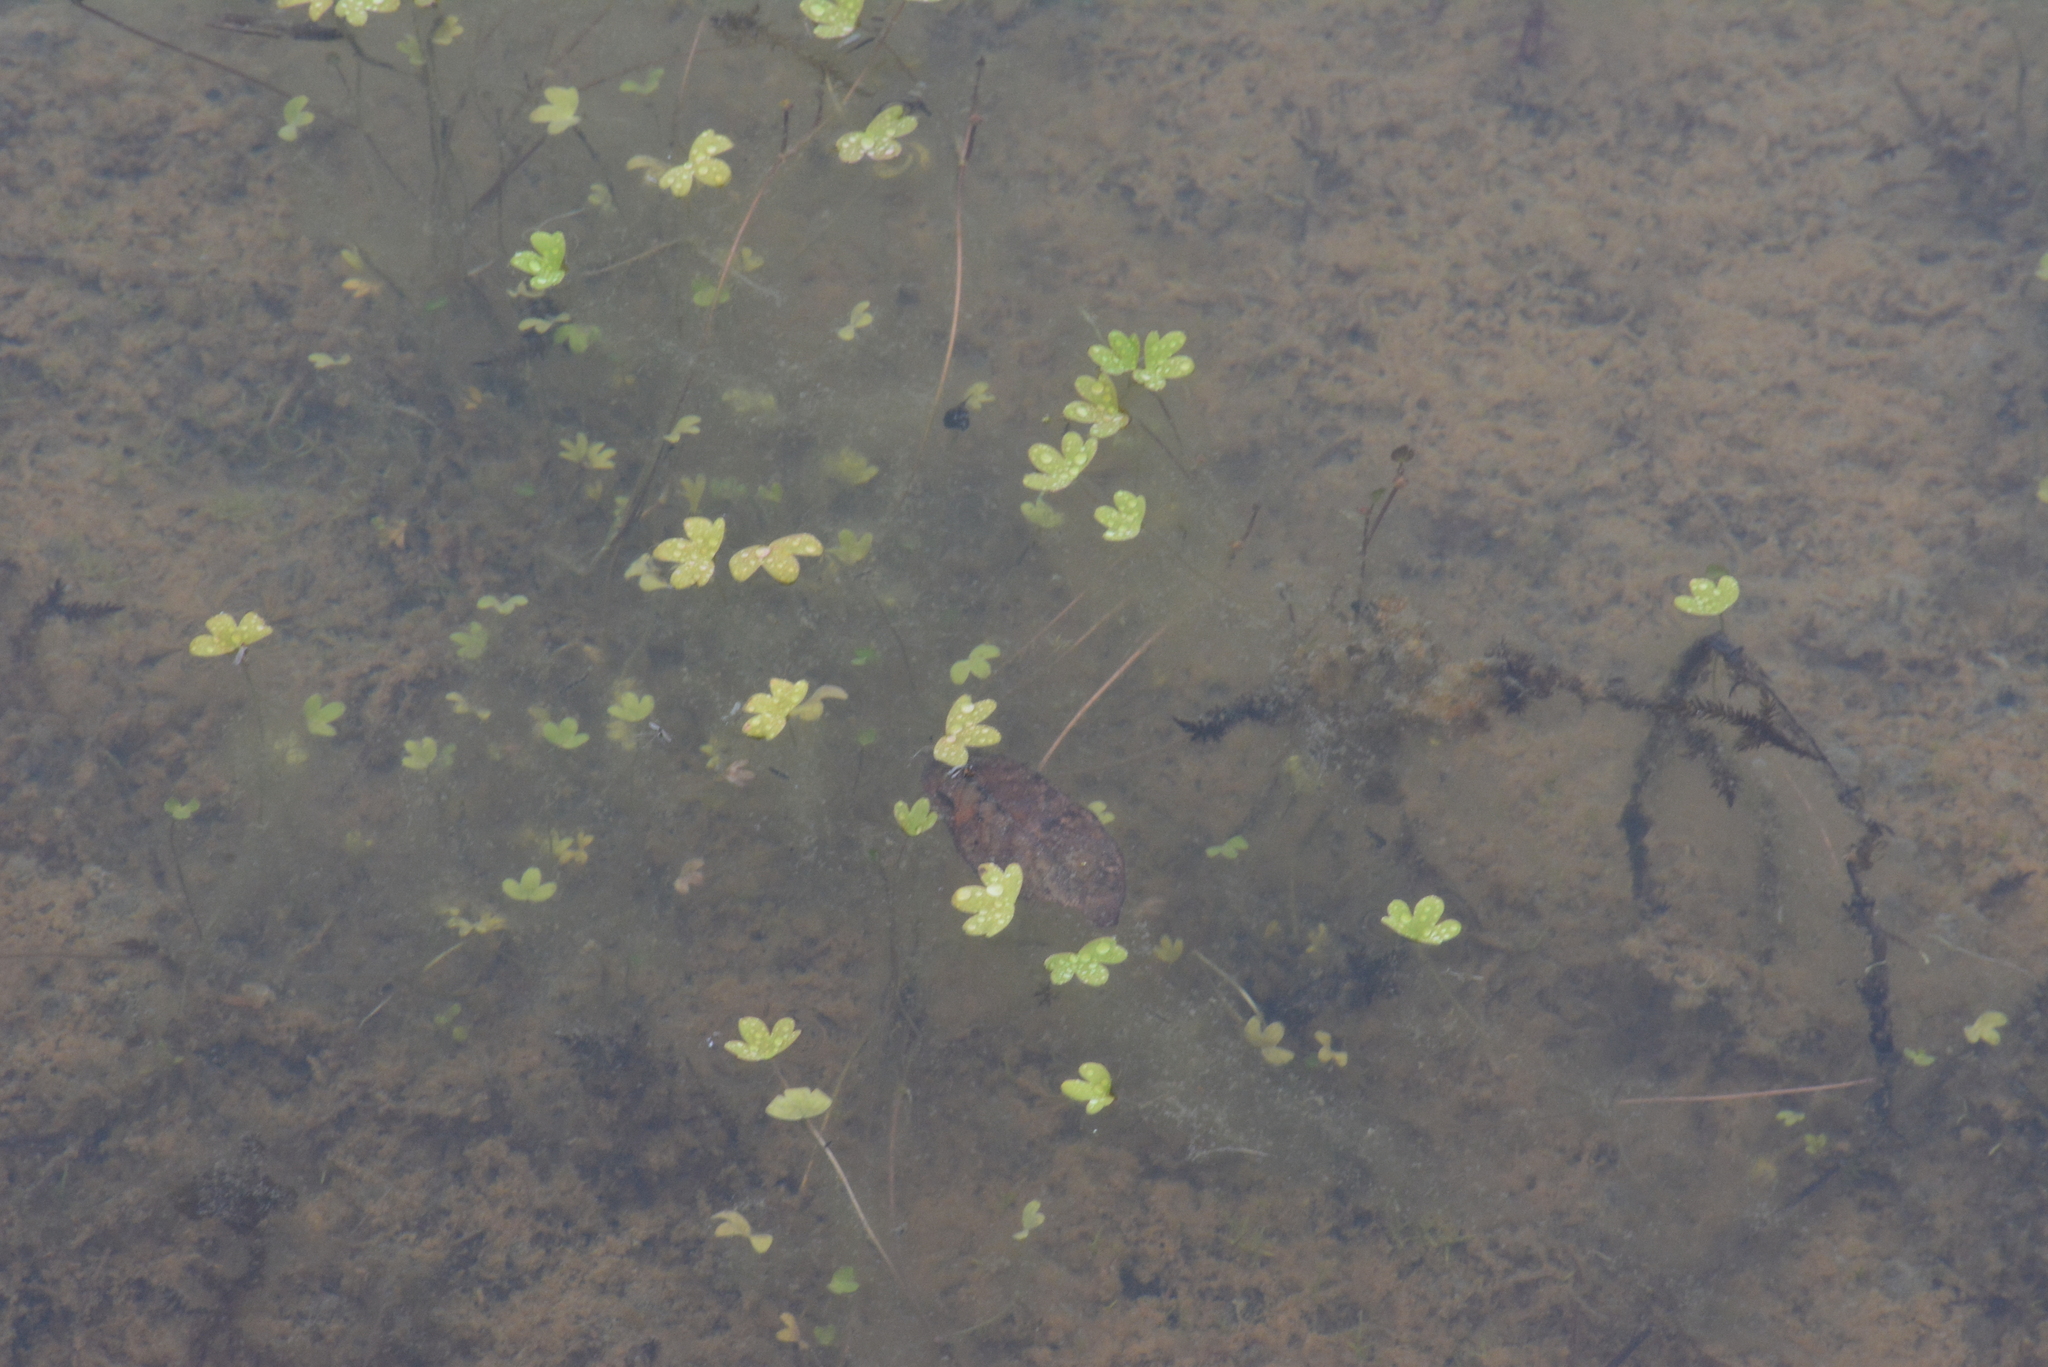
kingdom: Plantae
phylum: Tracheophyta
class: Magnoliopsida
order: Ranunculales
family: Ranunculaceae
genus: Ranunculus
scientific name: Ranunculus hyperboreus
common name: Arctic buttercup
